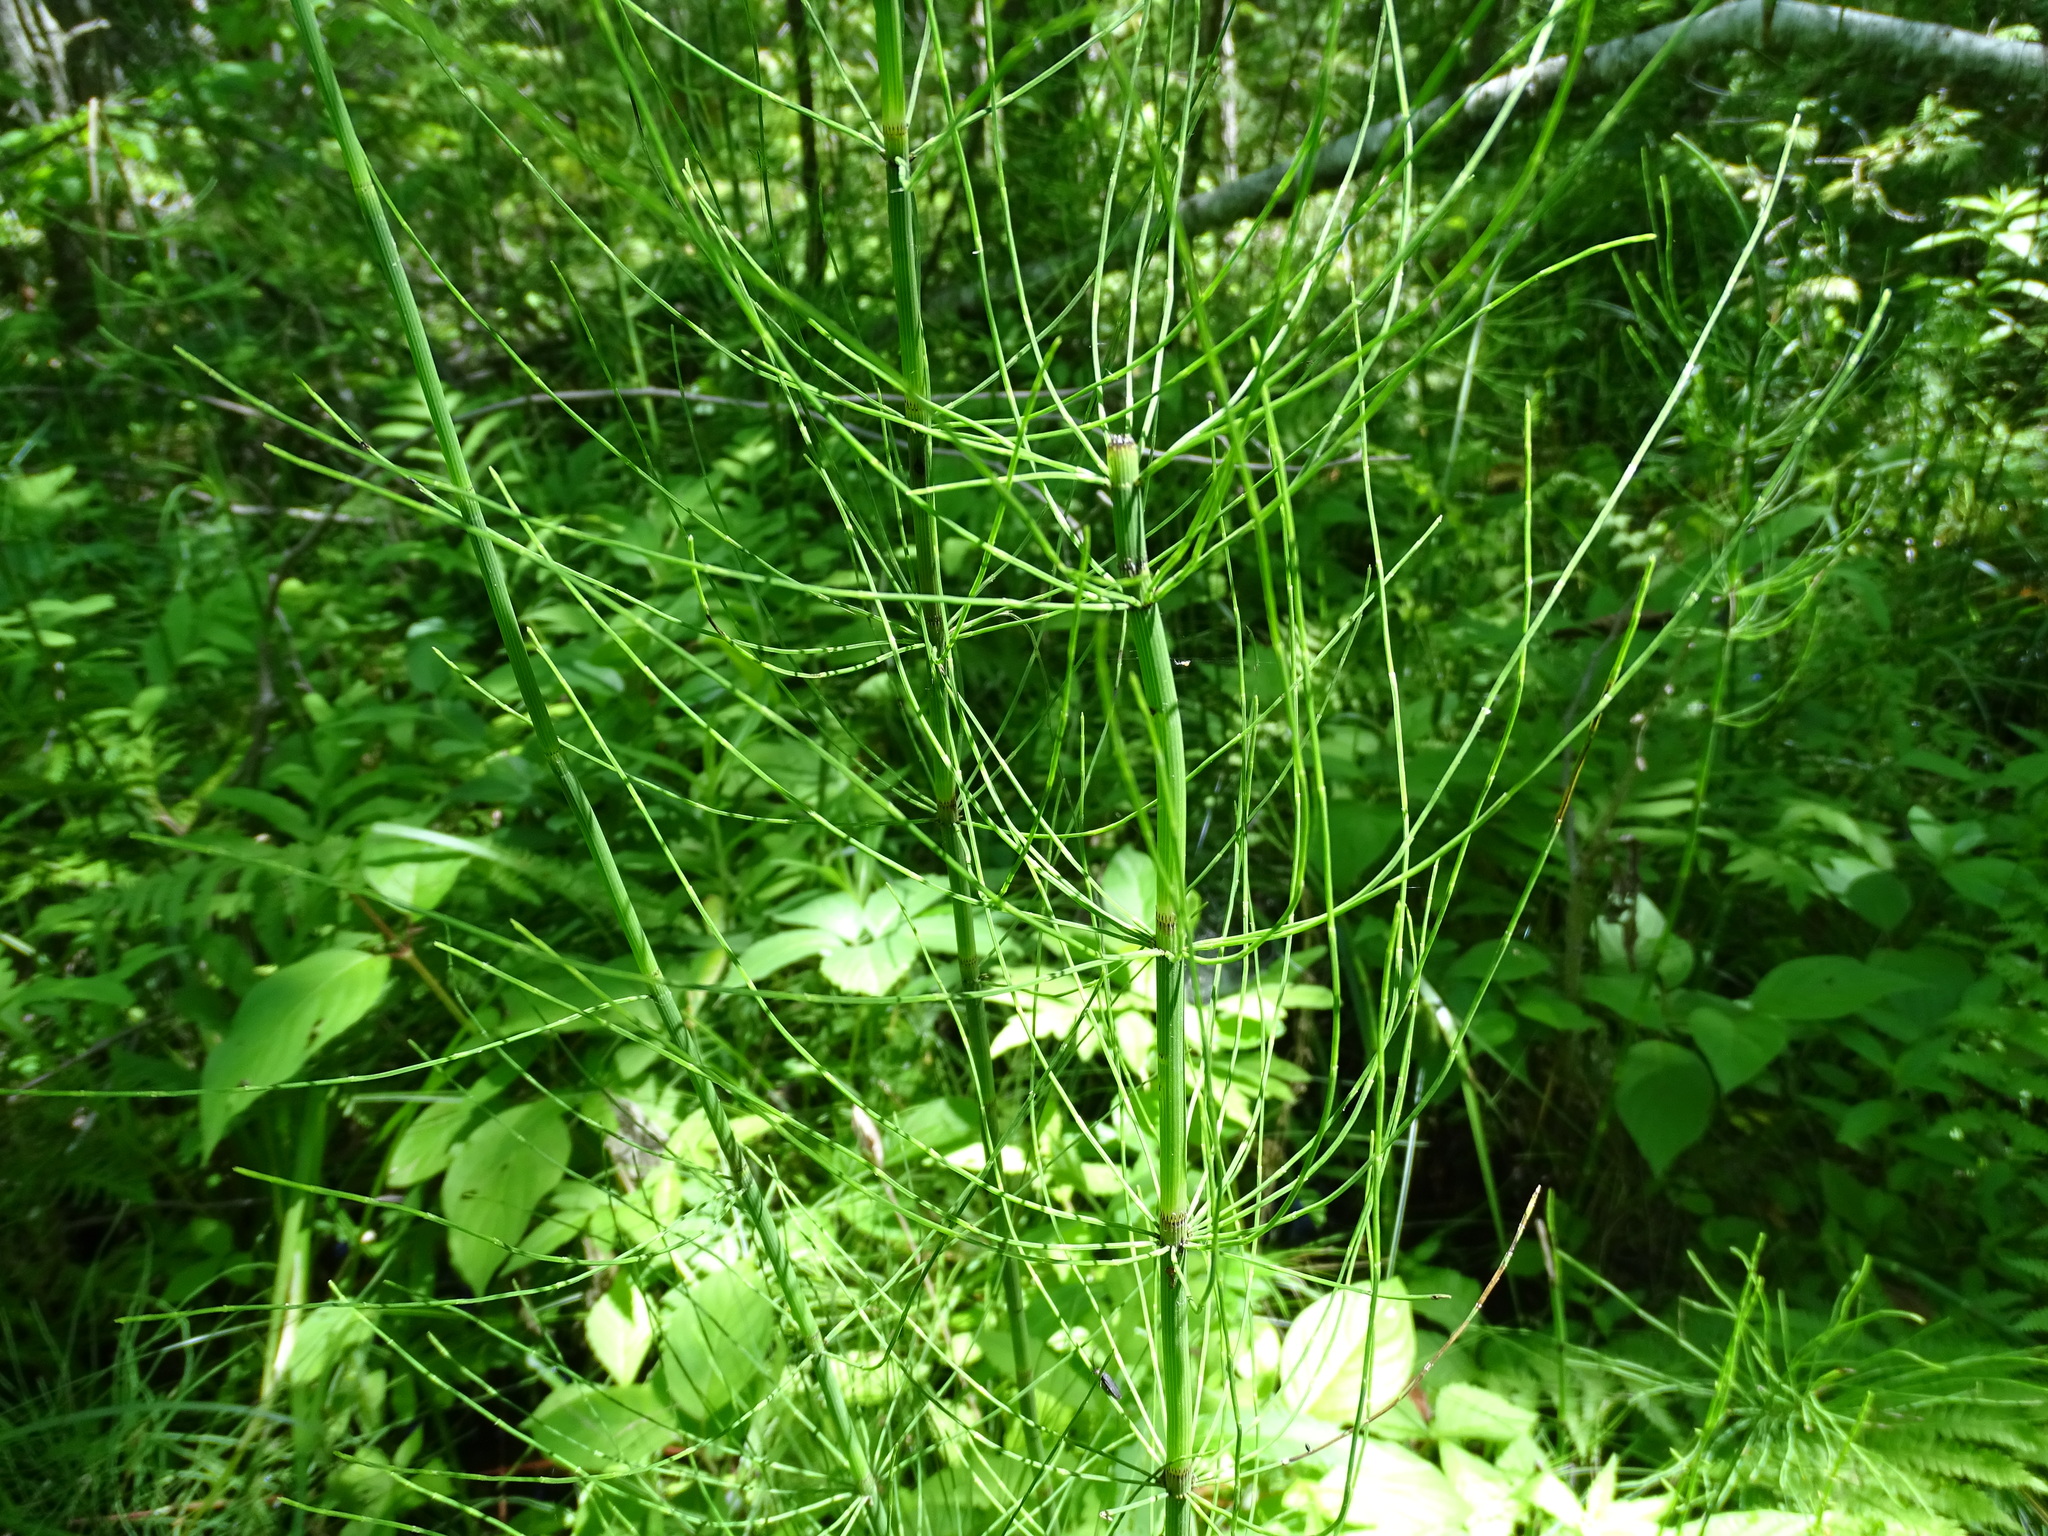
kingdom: Plantae
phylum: Tracheophyta
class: Polypodiopsida
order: Equisetales
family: Equisetaceae
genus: Equisetum
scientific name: Equisetum fluviatile
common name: Water horsetail
